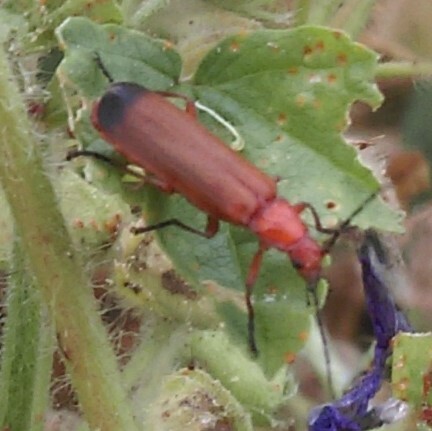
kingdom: Animalia
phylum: Arthropoda
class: Insecta
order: Coleoptera
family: Cantharidae
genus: Rhagonycha
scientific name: Rhagonycha fulva
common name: Common red soldier beetle
